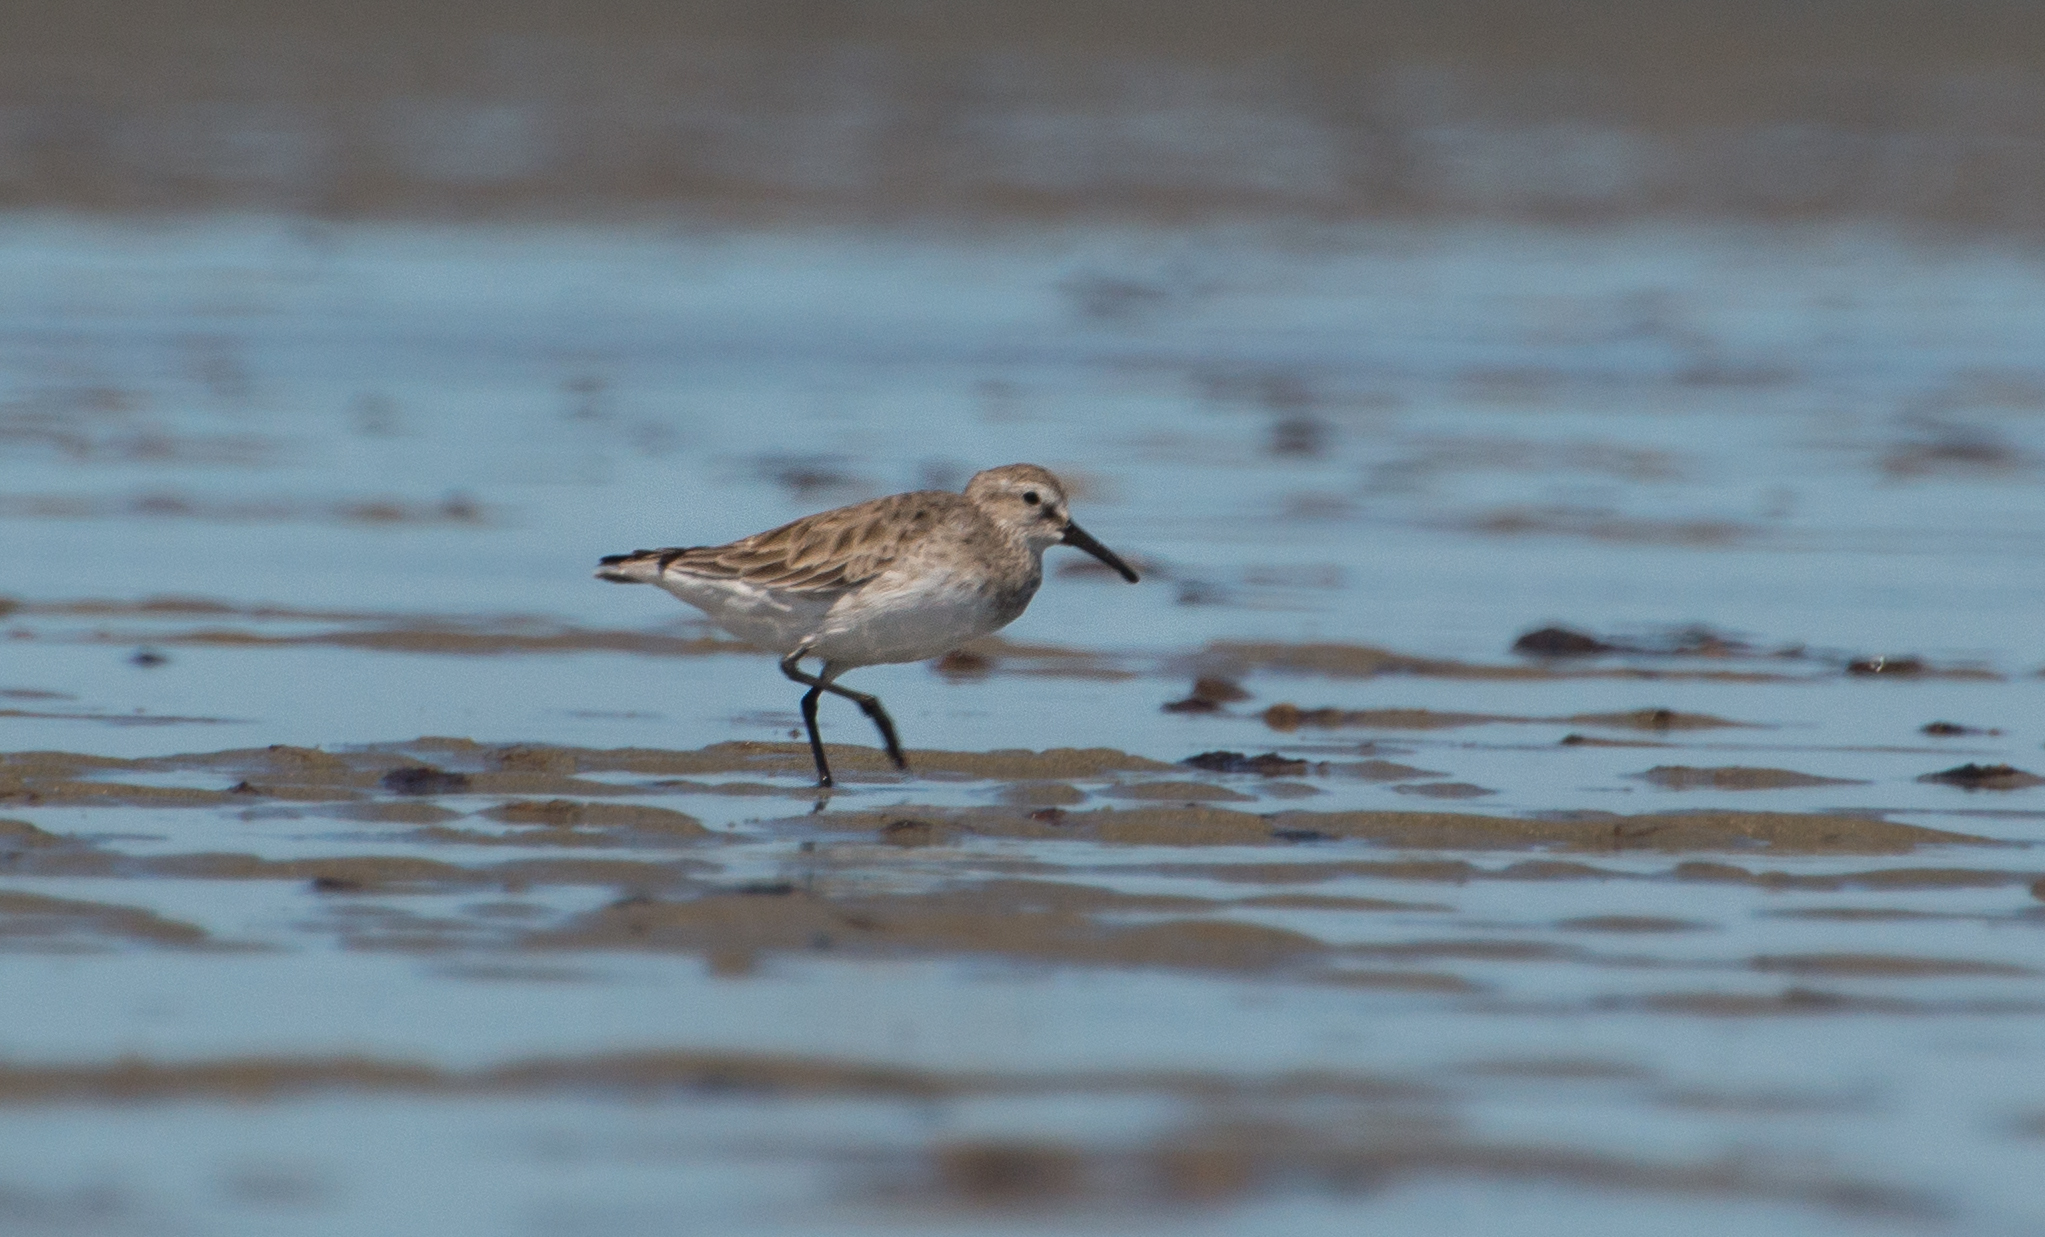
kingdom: Animalia
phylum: Chordata
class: Aves
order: Charadriiformes
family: Scolopacidae
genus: Calidris
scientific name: Calidris fuscicollis
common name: White-rumped sandpiper
